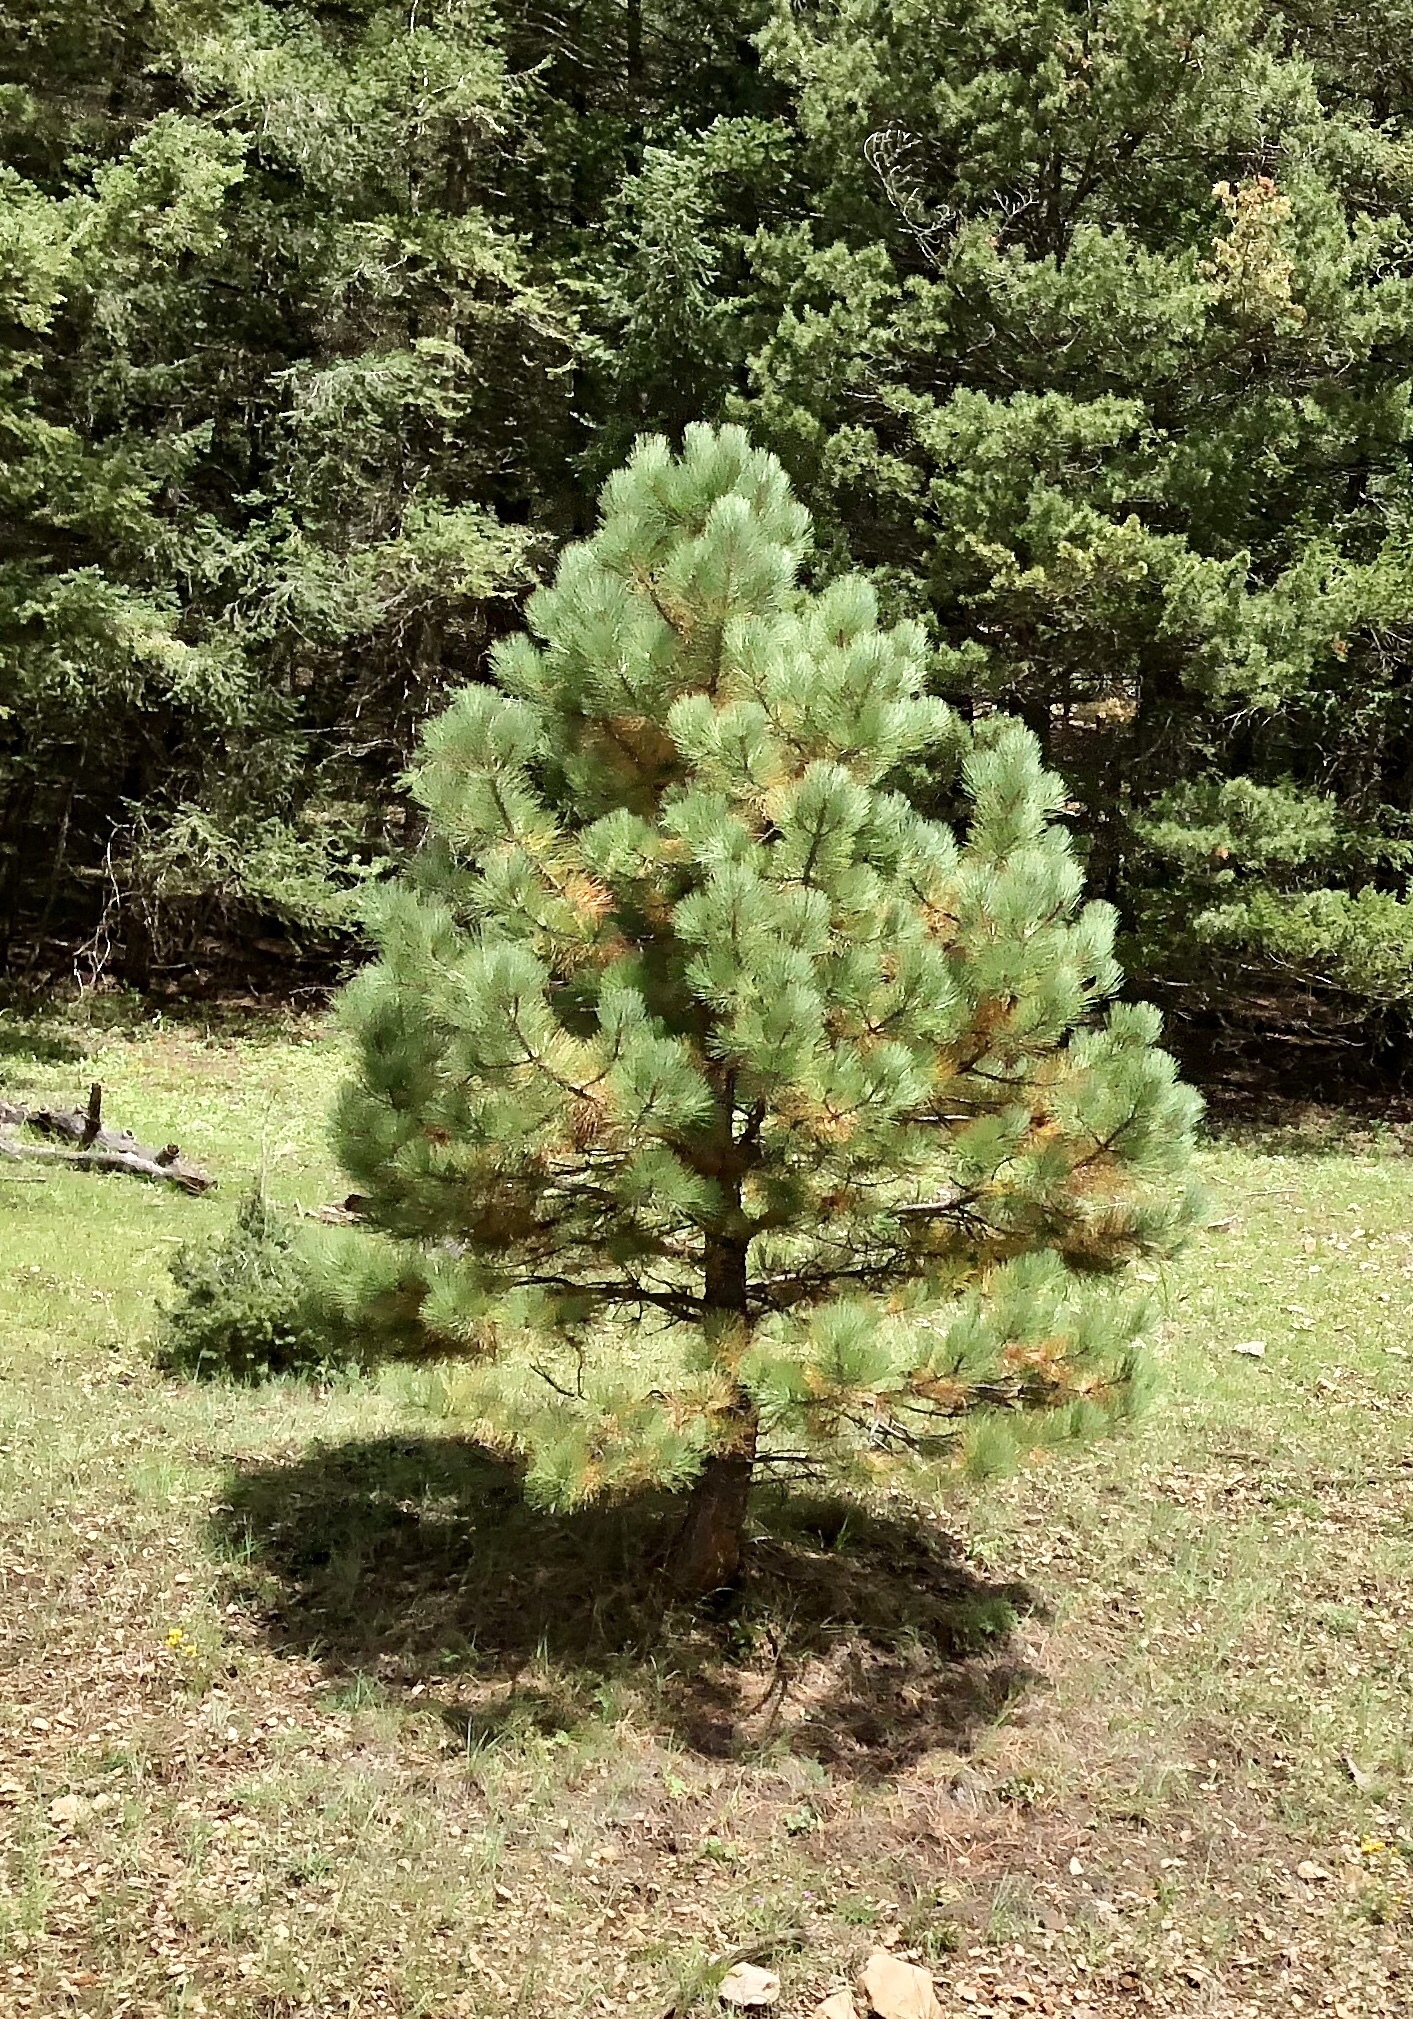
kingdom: Plantae
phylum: Tracheophyta
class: Pinopsida
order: Pinales
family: Pinaceae
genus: Pinus
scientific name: Pinus ponderosa
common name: Western yellow-pine
